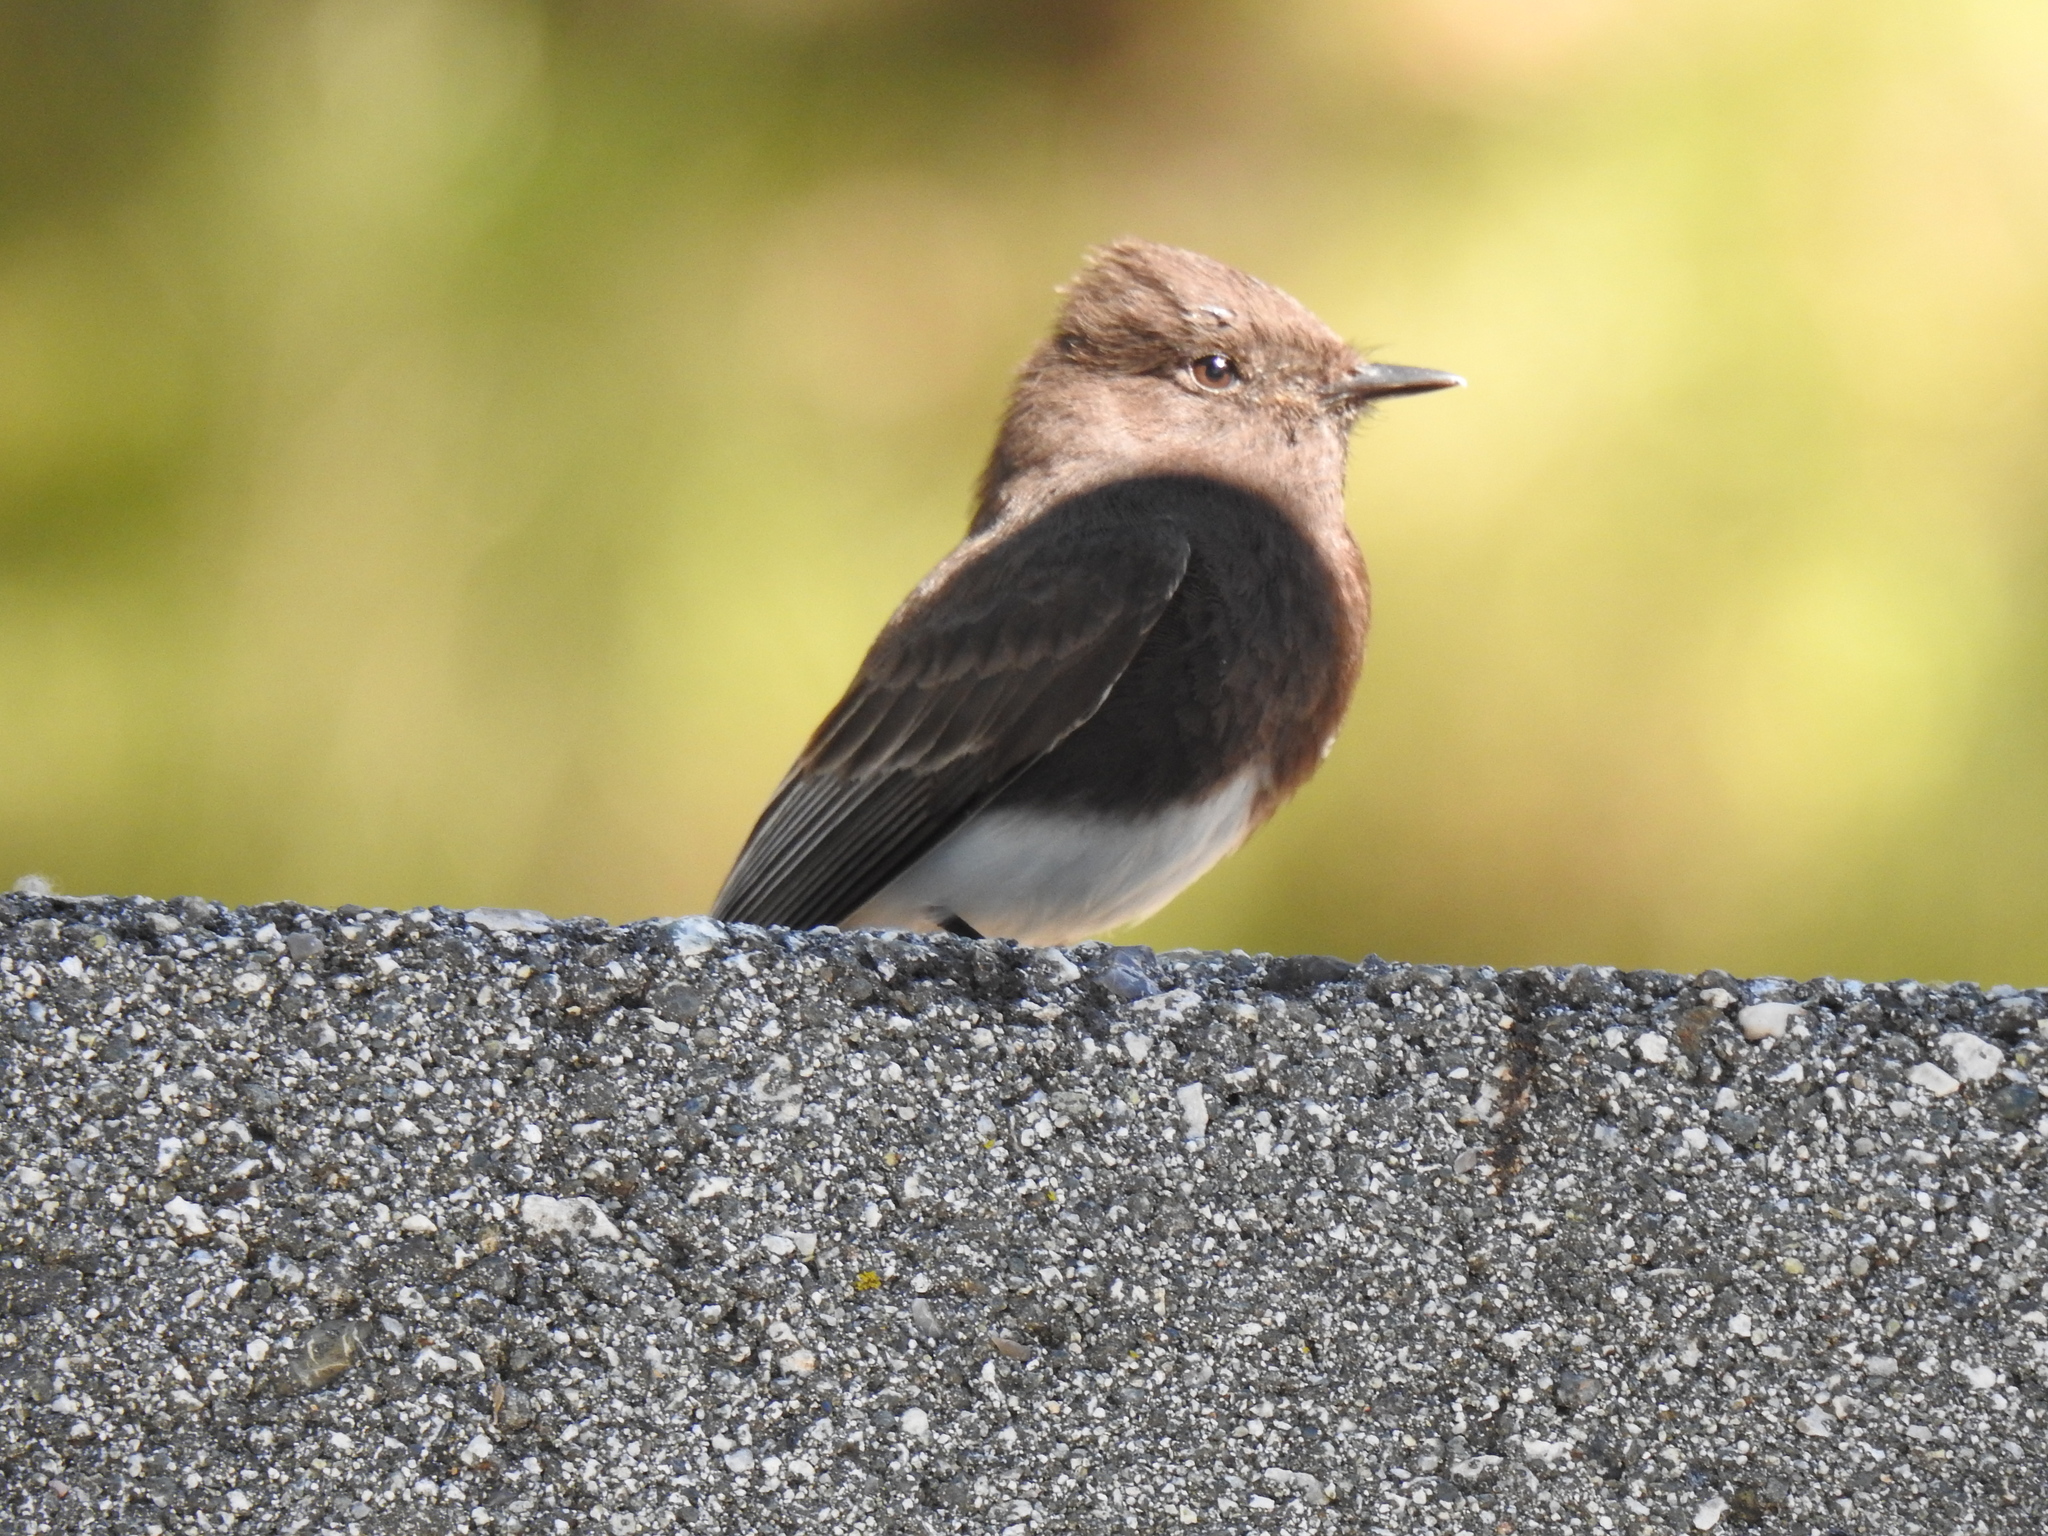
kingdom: Animalia
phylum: Chordata
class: Aves
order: Passeriformes
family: Tyrannidae
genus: Sayornis
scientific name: Sayornis nigricans
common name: Black phoebe
